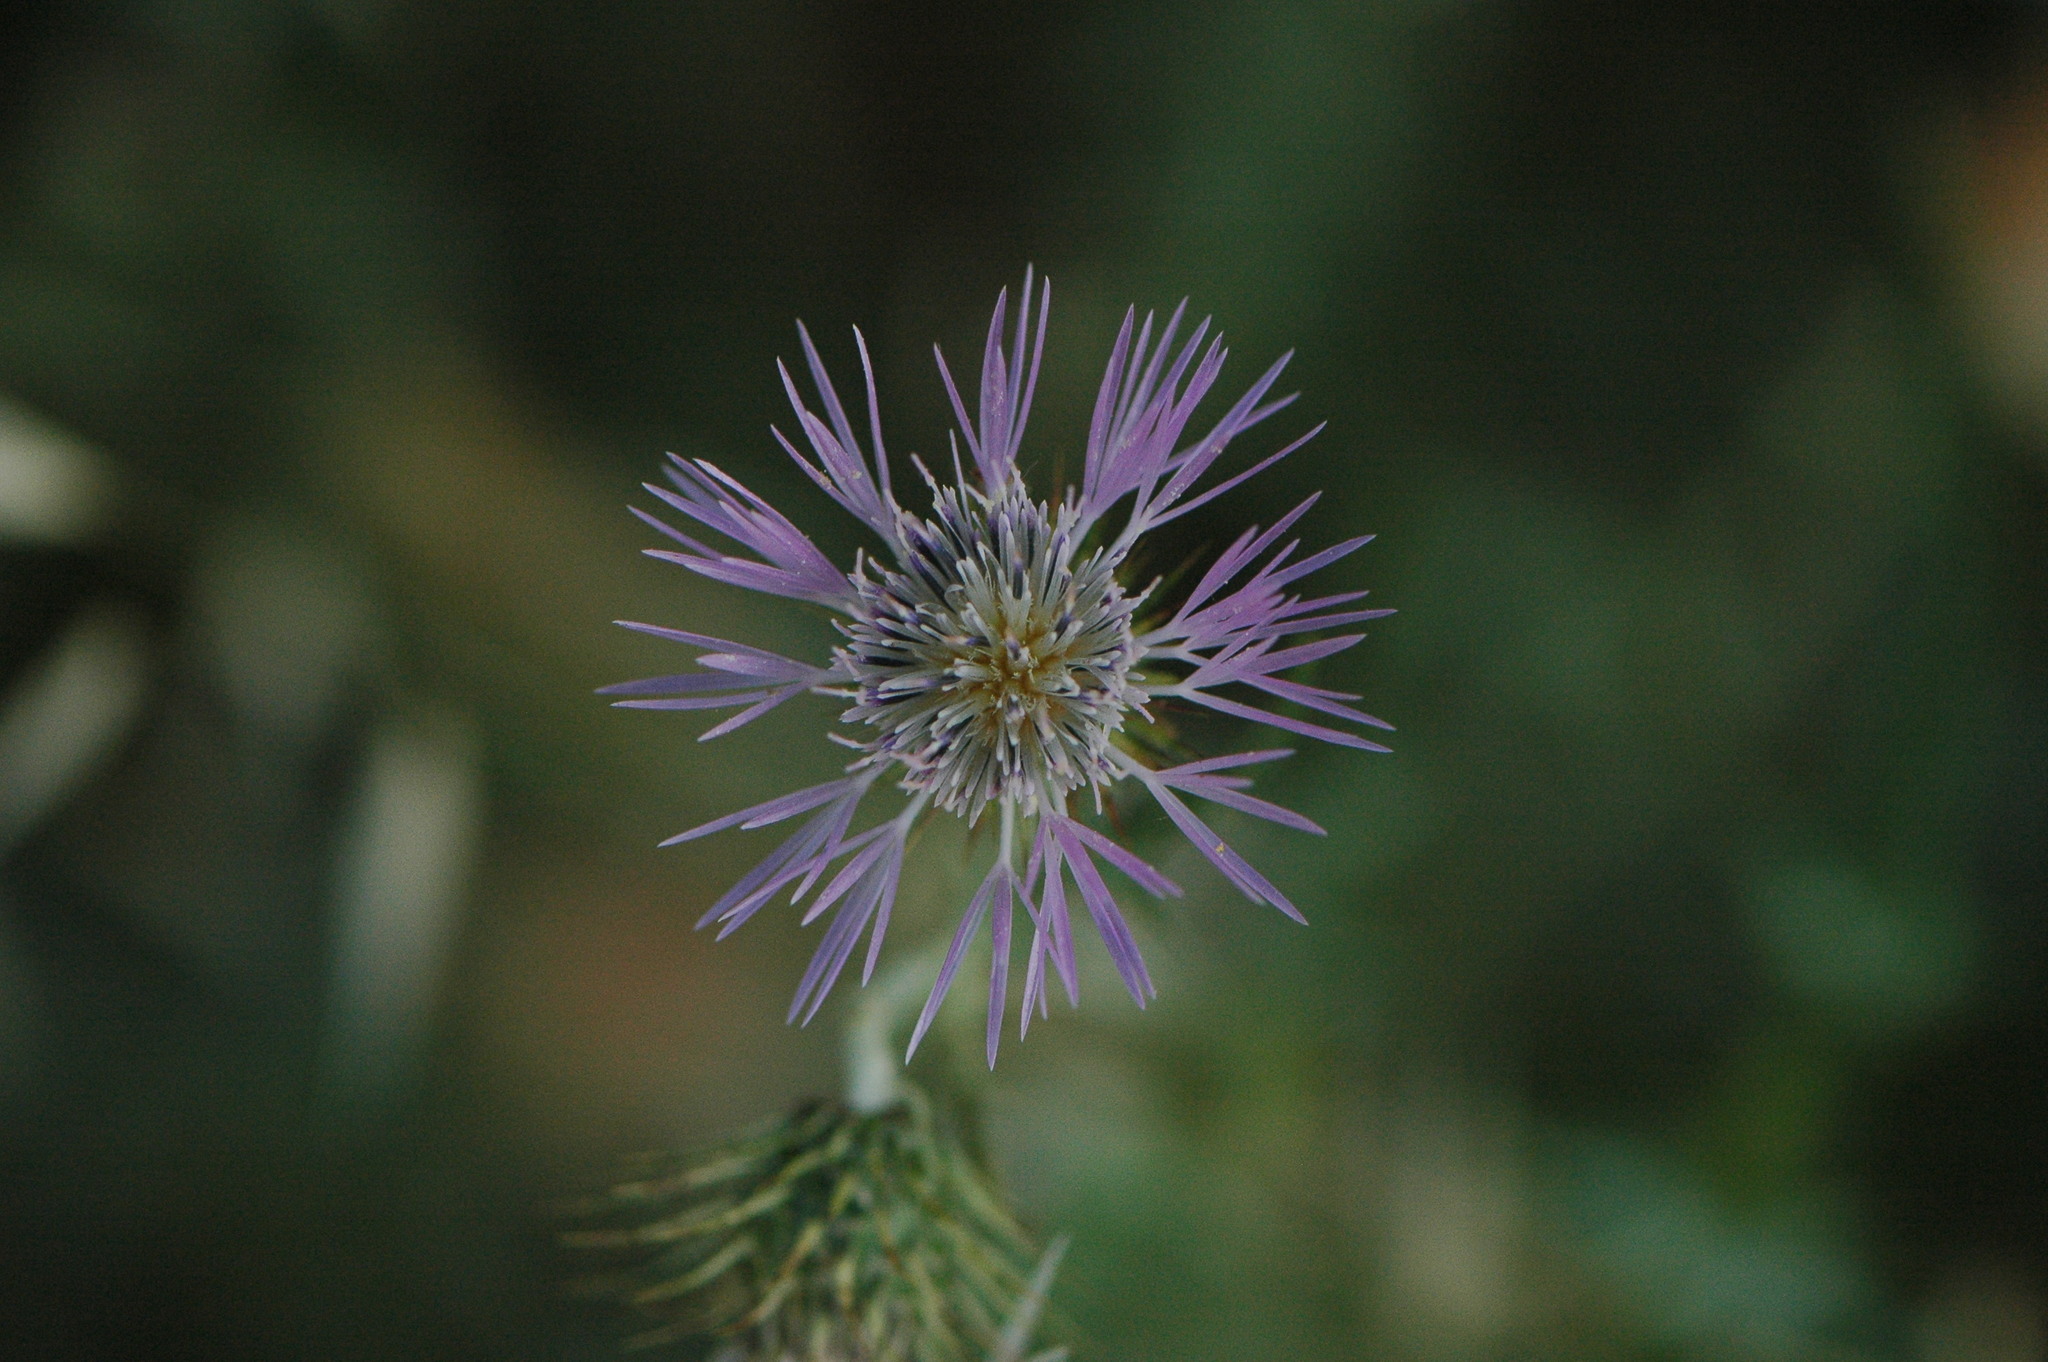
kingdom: Plantae
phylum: Tracheophyta
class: Magnoliopsida
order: Asterales
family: Asteraceae
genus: Galactites
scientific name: Galactites tomentosa
